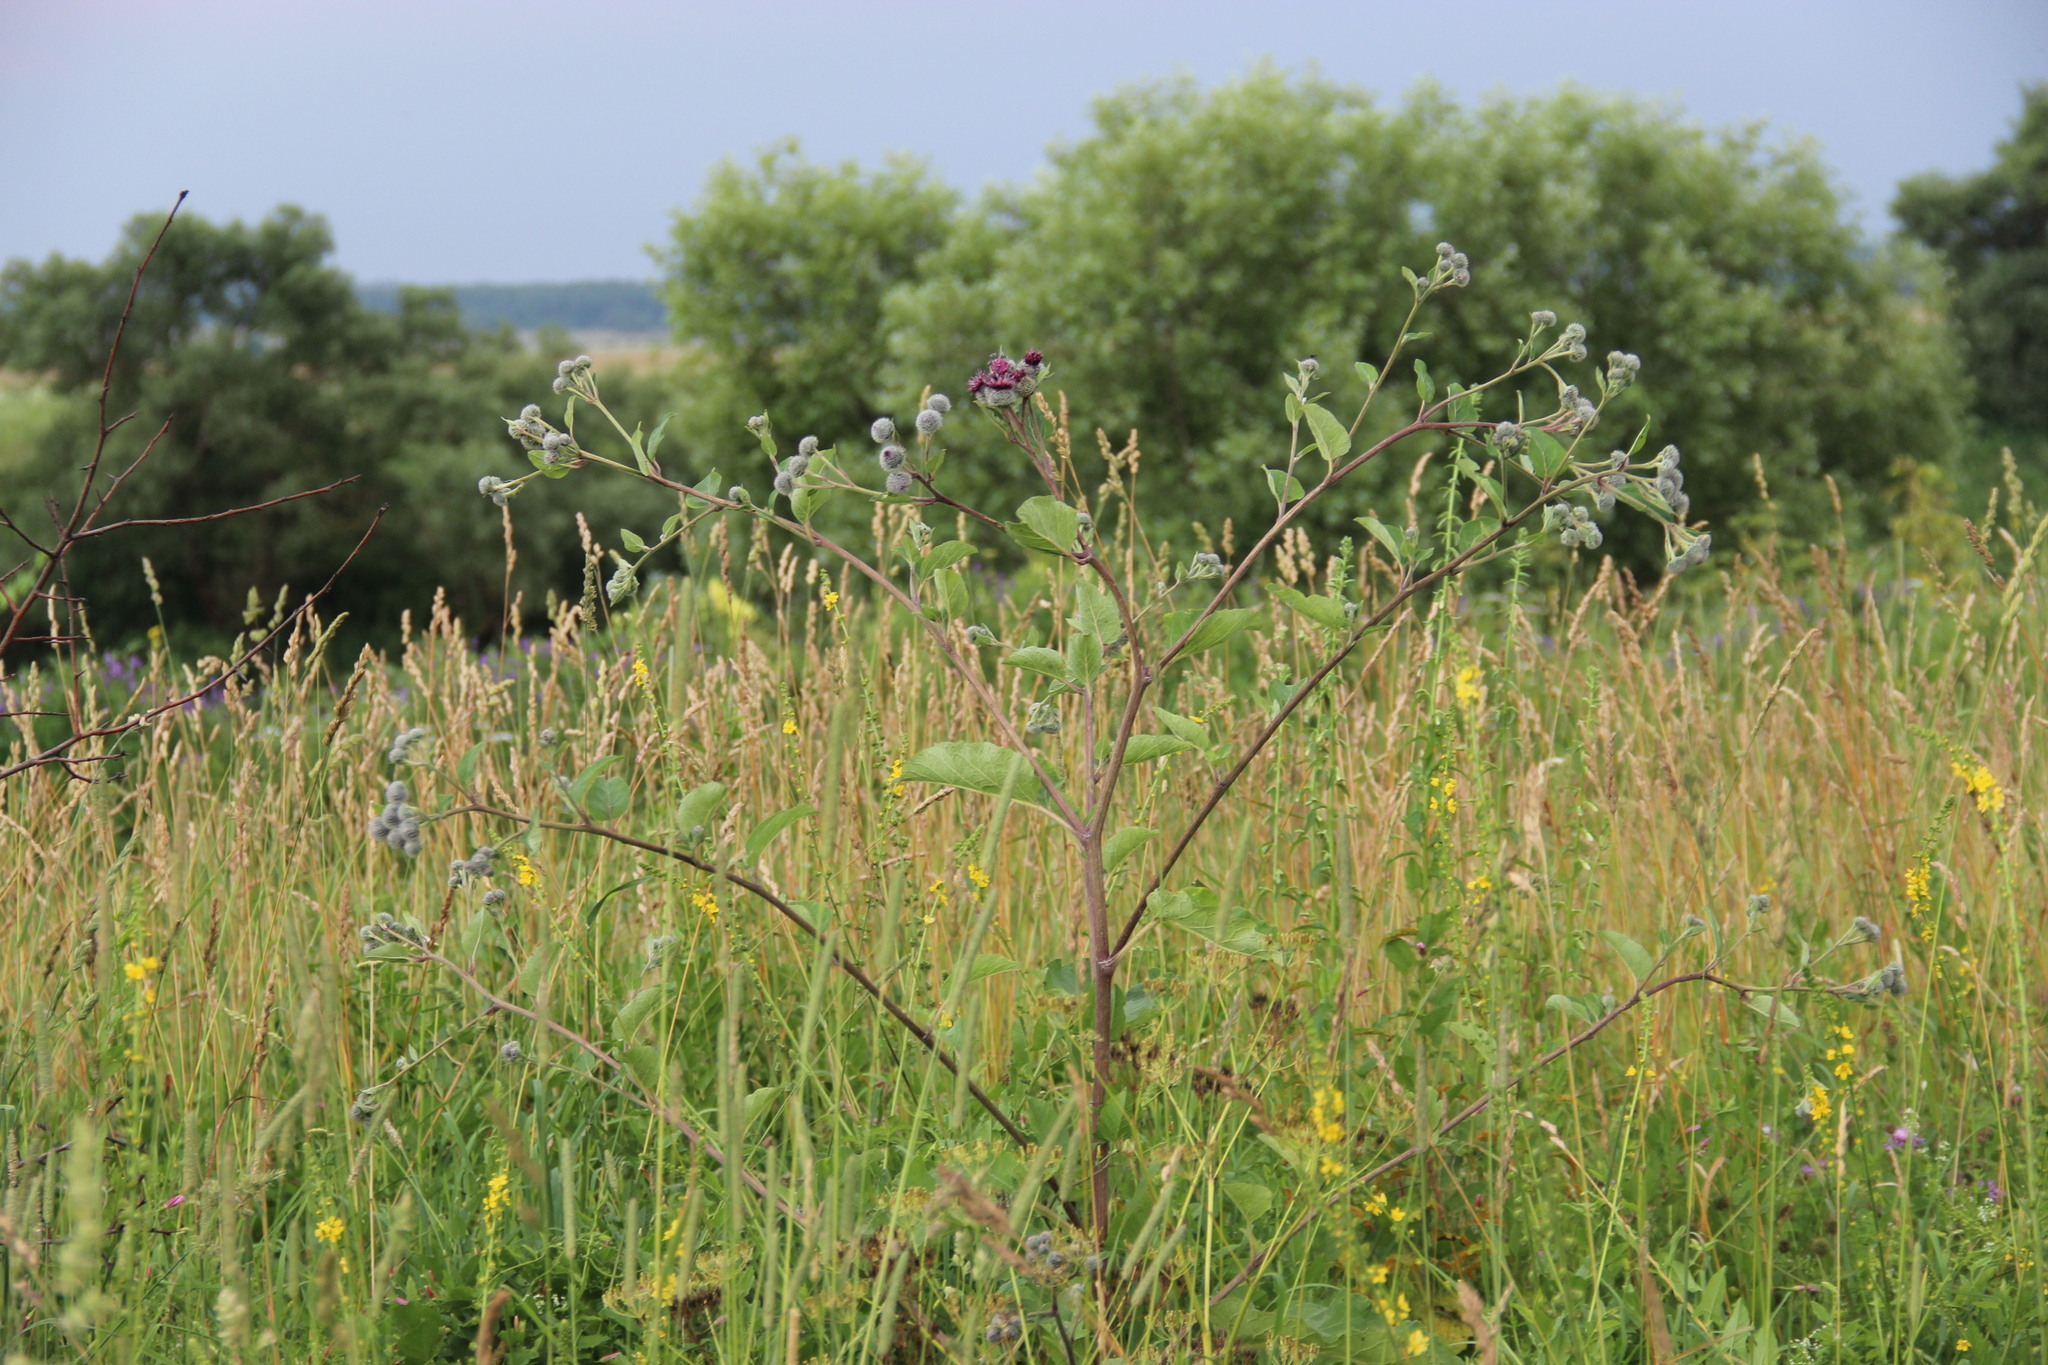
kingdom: Plantae
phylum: Tracheophyta
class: Magnoliopsida
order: Asterales
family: Asteraceae
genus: Arctium
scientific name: Arctium tomentosum
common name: Woolly burdock
